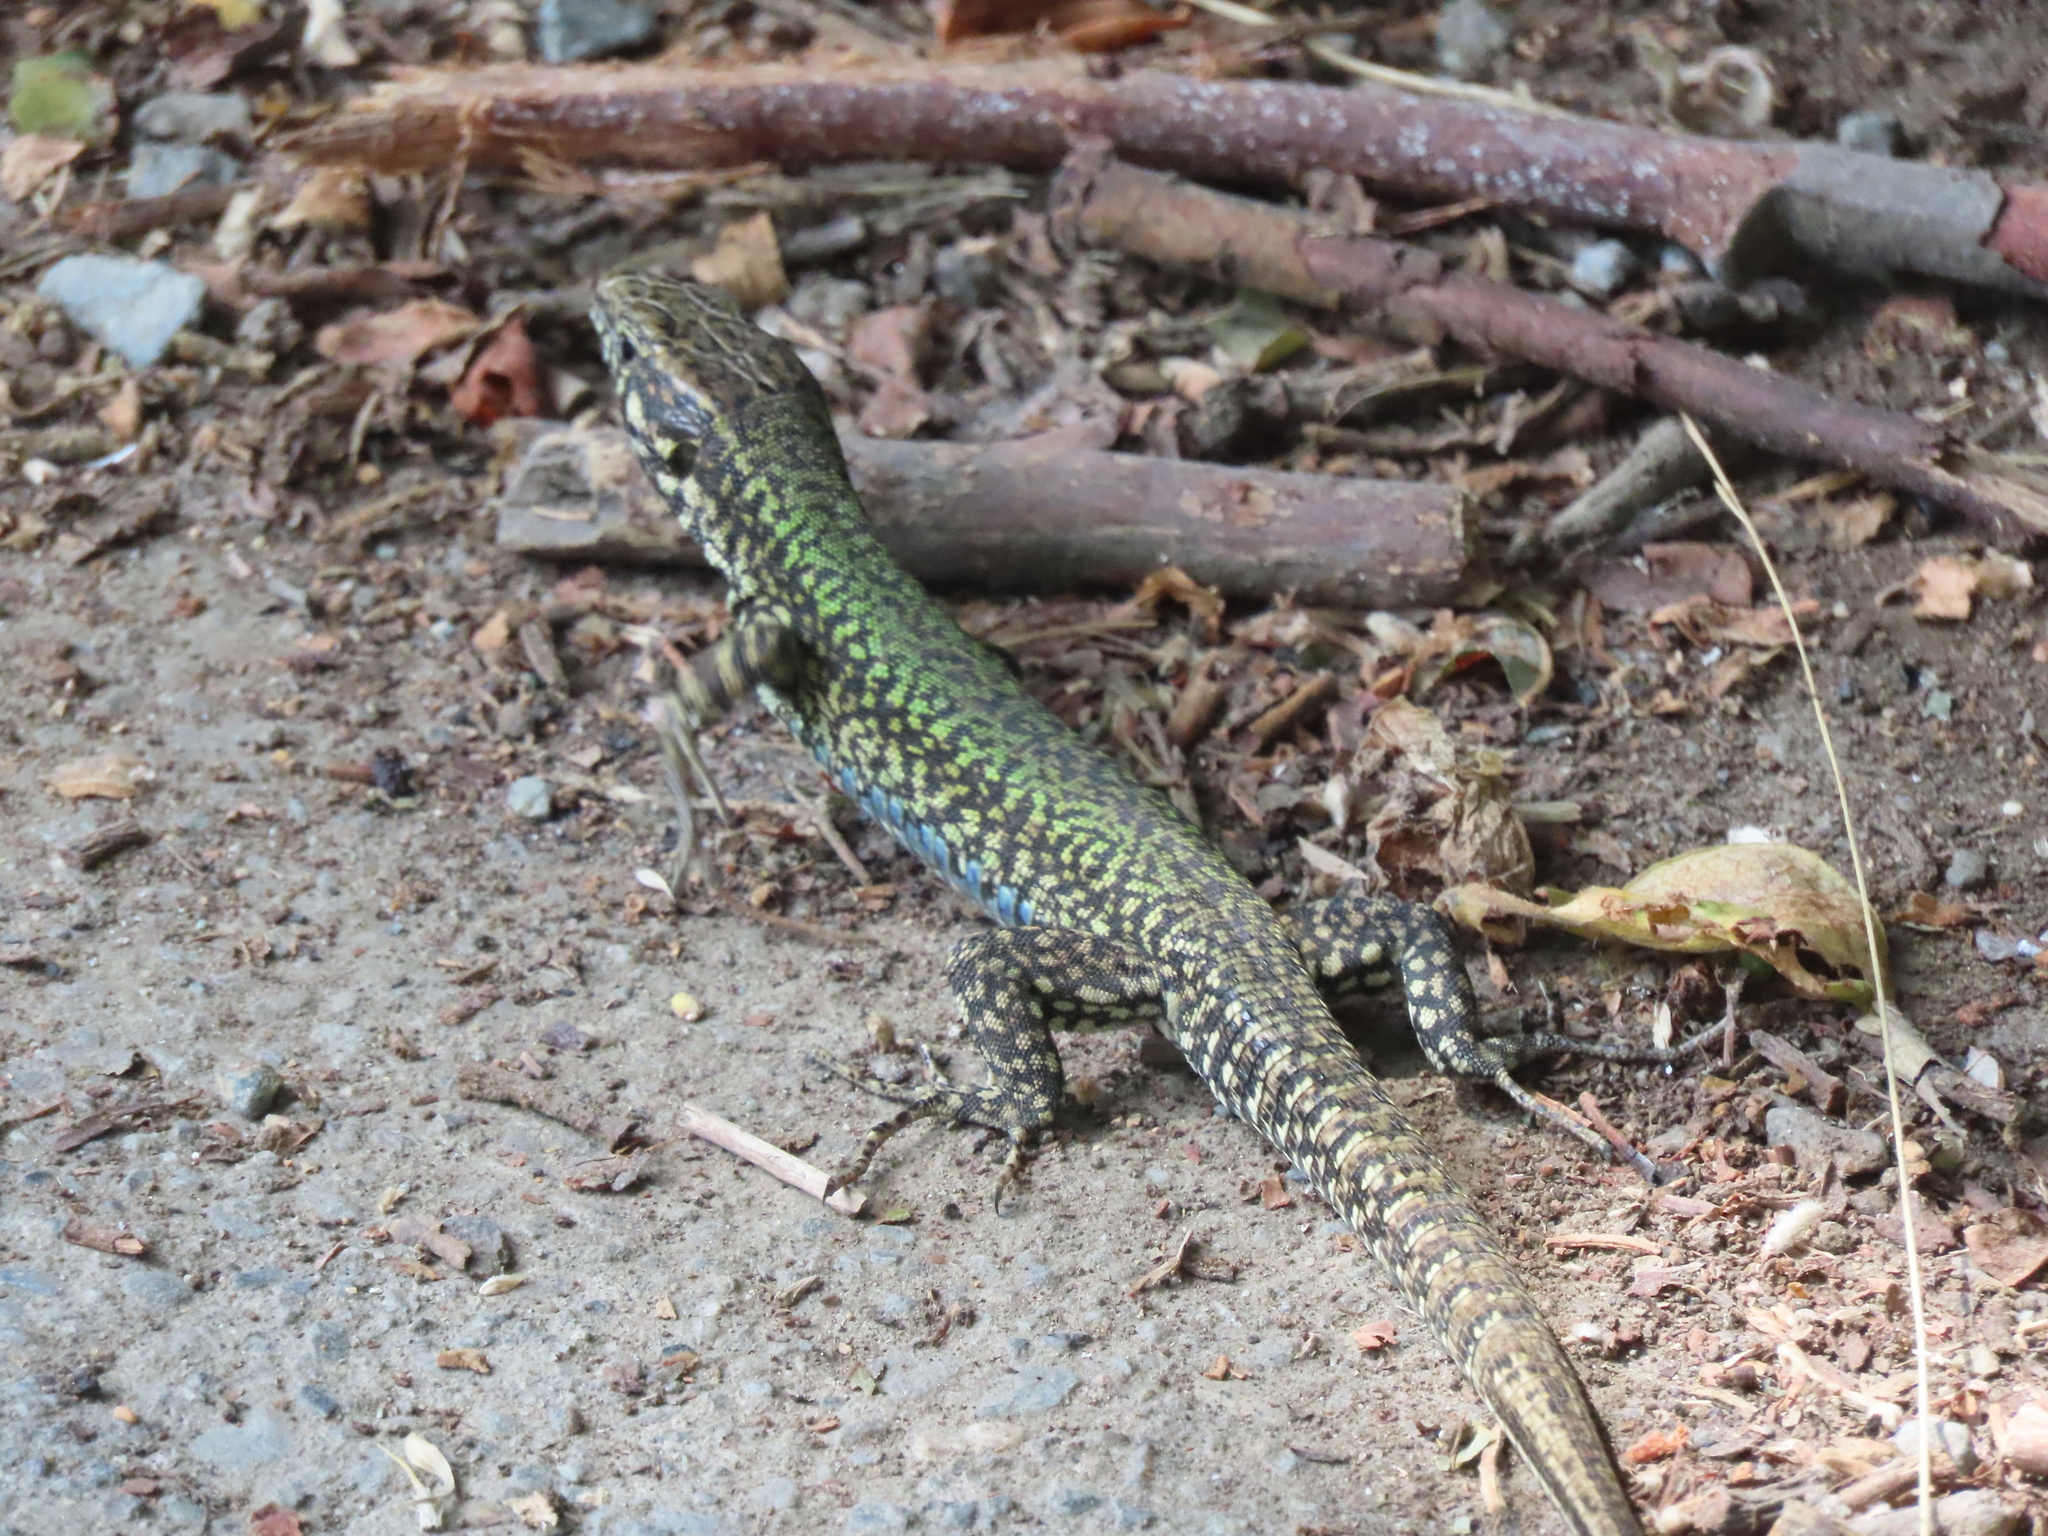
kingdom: Animalia
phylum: Chordata
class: Squamata
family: Lacertidae
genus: Podarcis
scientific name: Podarcis muralis
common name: Common wall lizard
